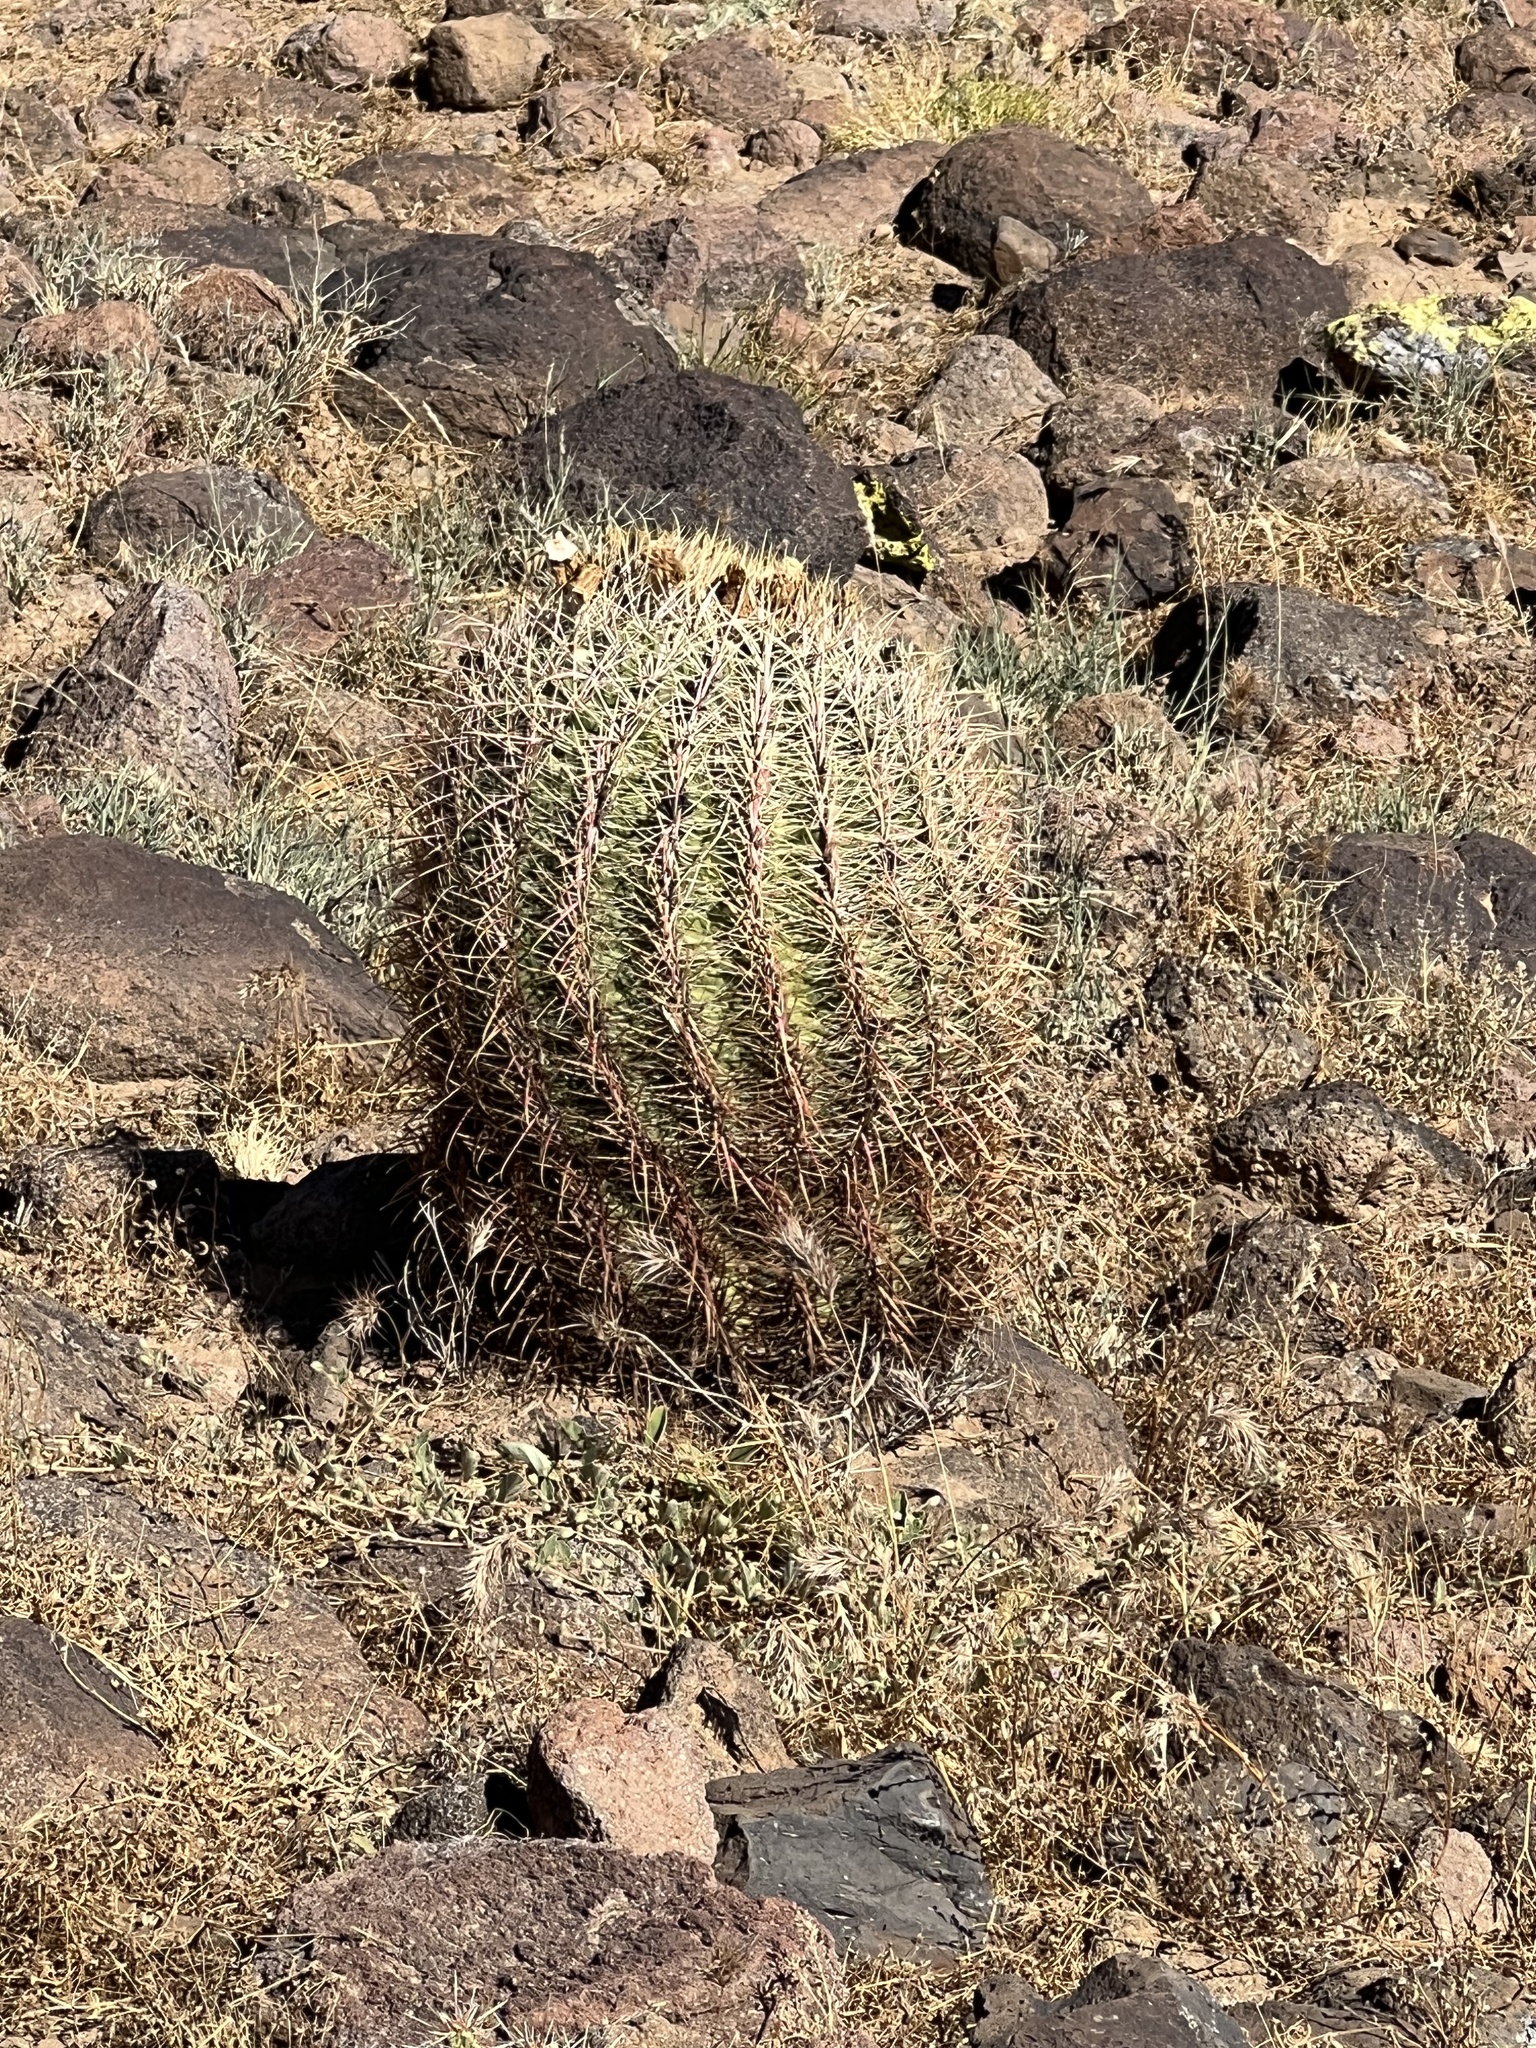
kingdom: Plantae
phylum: Tracheophyta
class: Magnoliopsida
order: Caryophyllales
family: Cactaceae
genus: Ferocactus
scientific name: Ferocactus cylindraceus
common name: California barrel cactus
